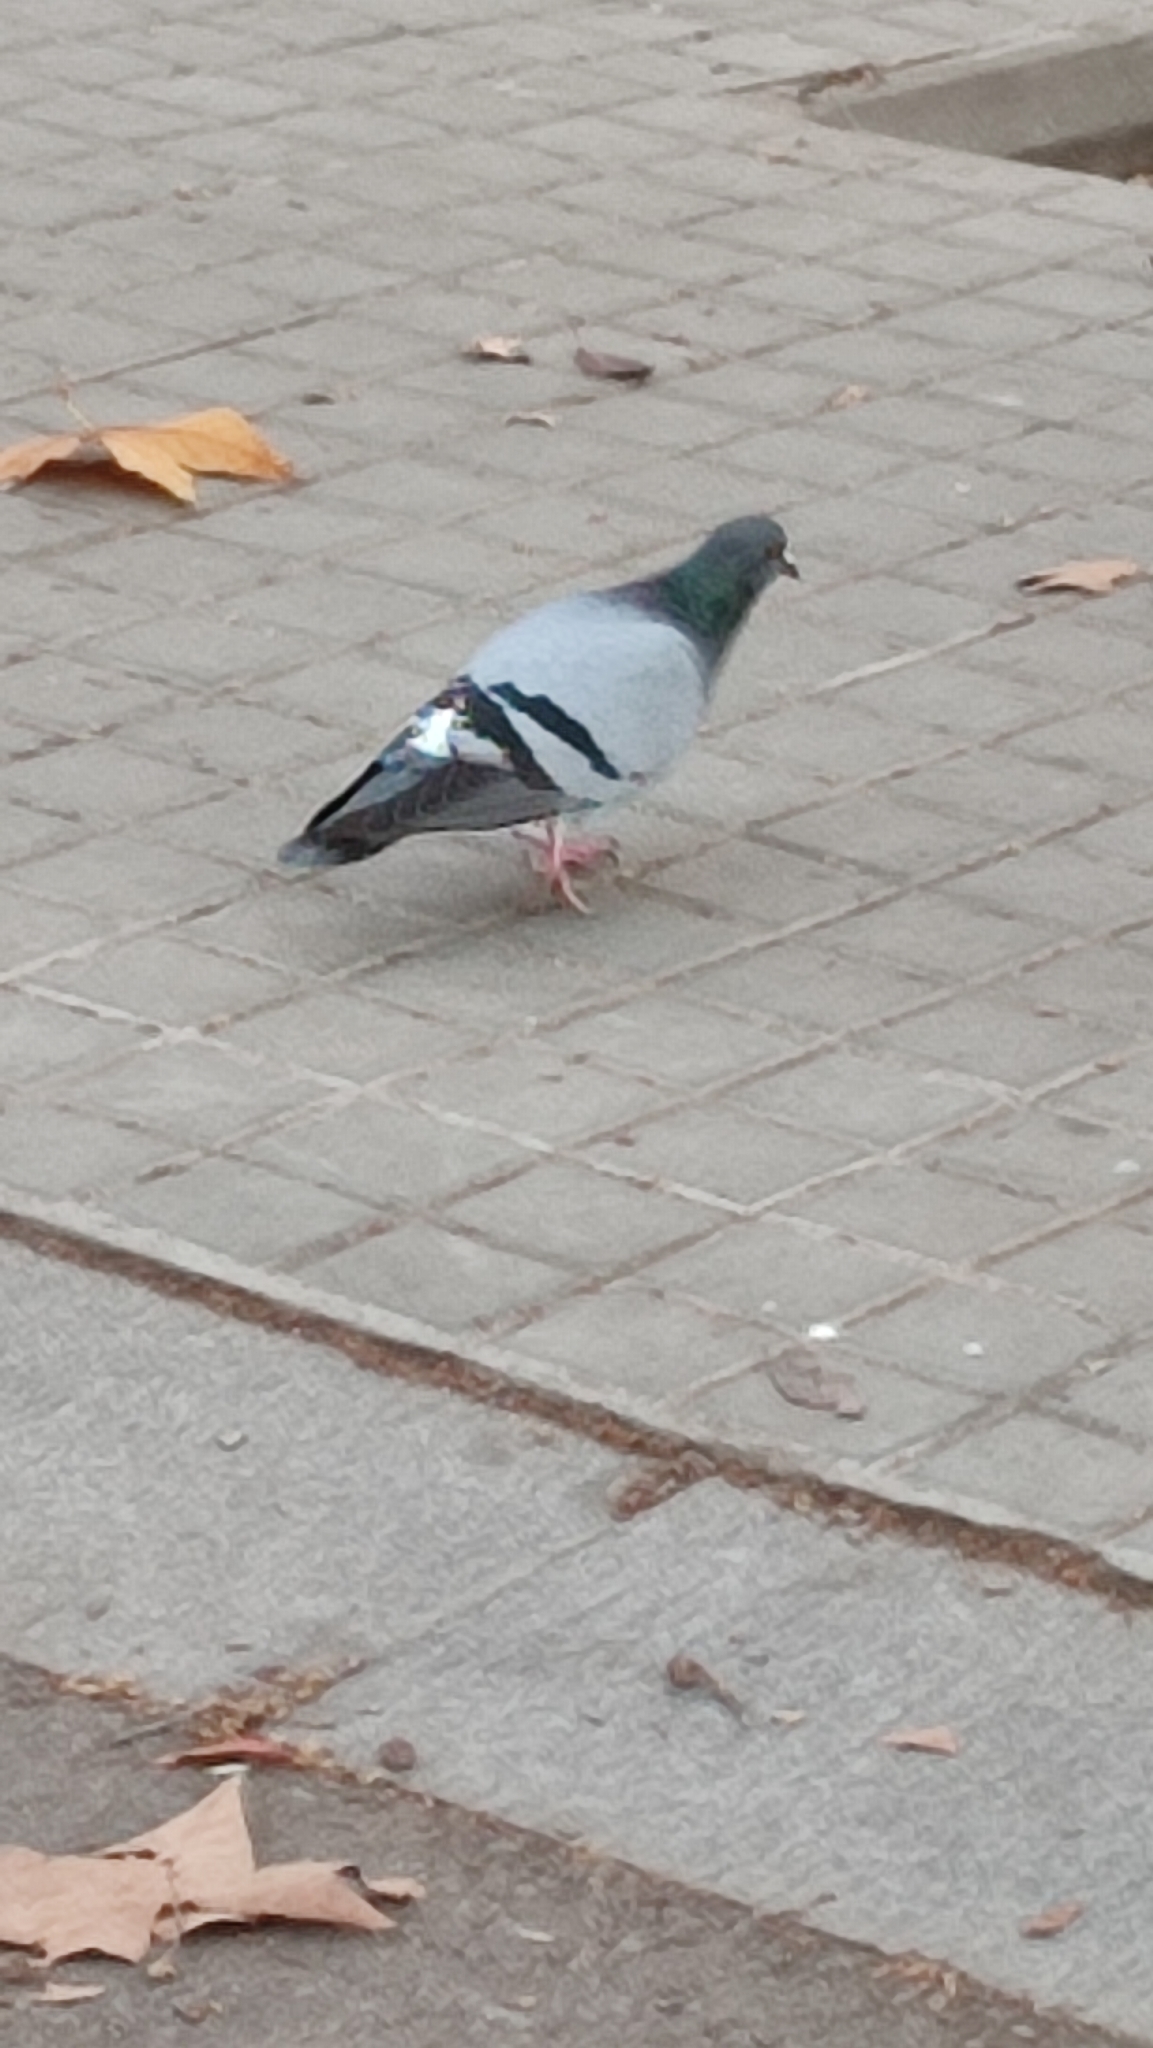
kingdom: Animalia
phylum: Chordata
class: Aves
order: Columbiformes
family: Columbidae
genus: Columba
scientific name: Columba livia
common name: Rock pigeon
